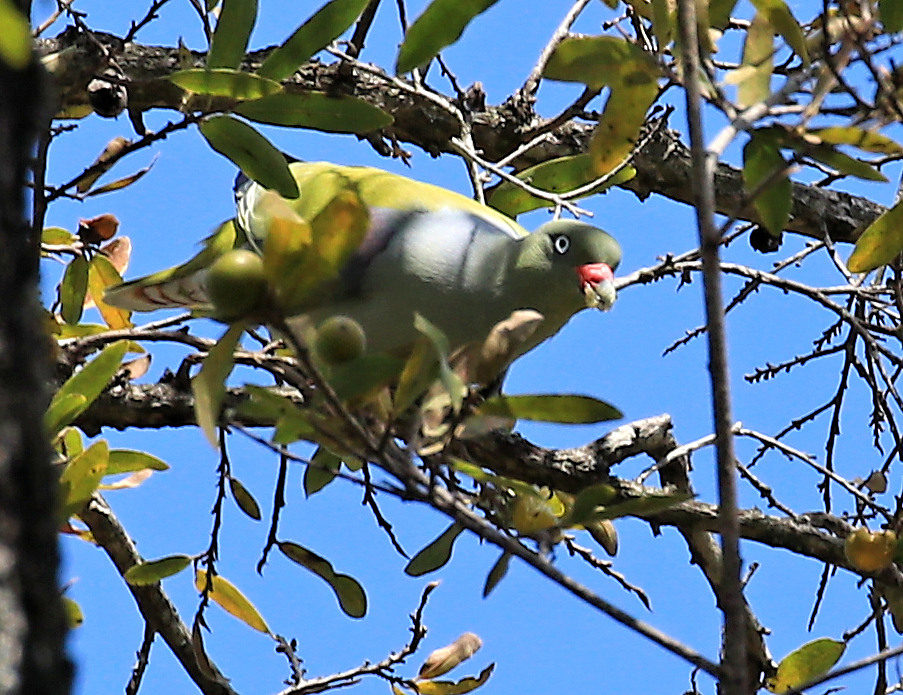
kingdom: Animalia
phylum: Chordata
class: Aves
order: Columbiformes
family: Columbidae
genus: Treron
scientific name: Treron calvus
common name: African green pigeon
